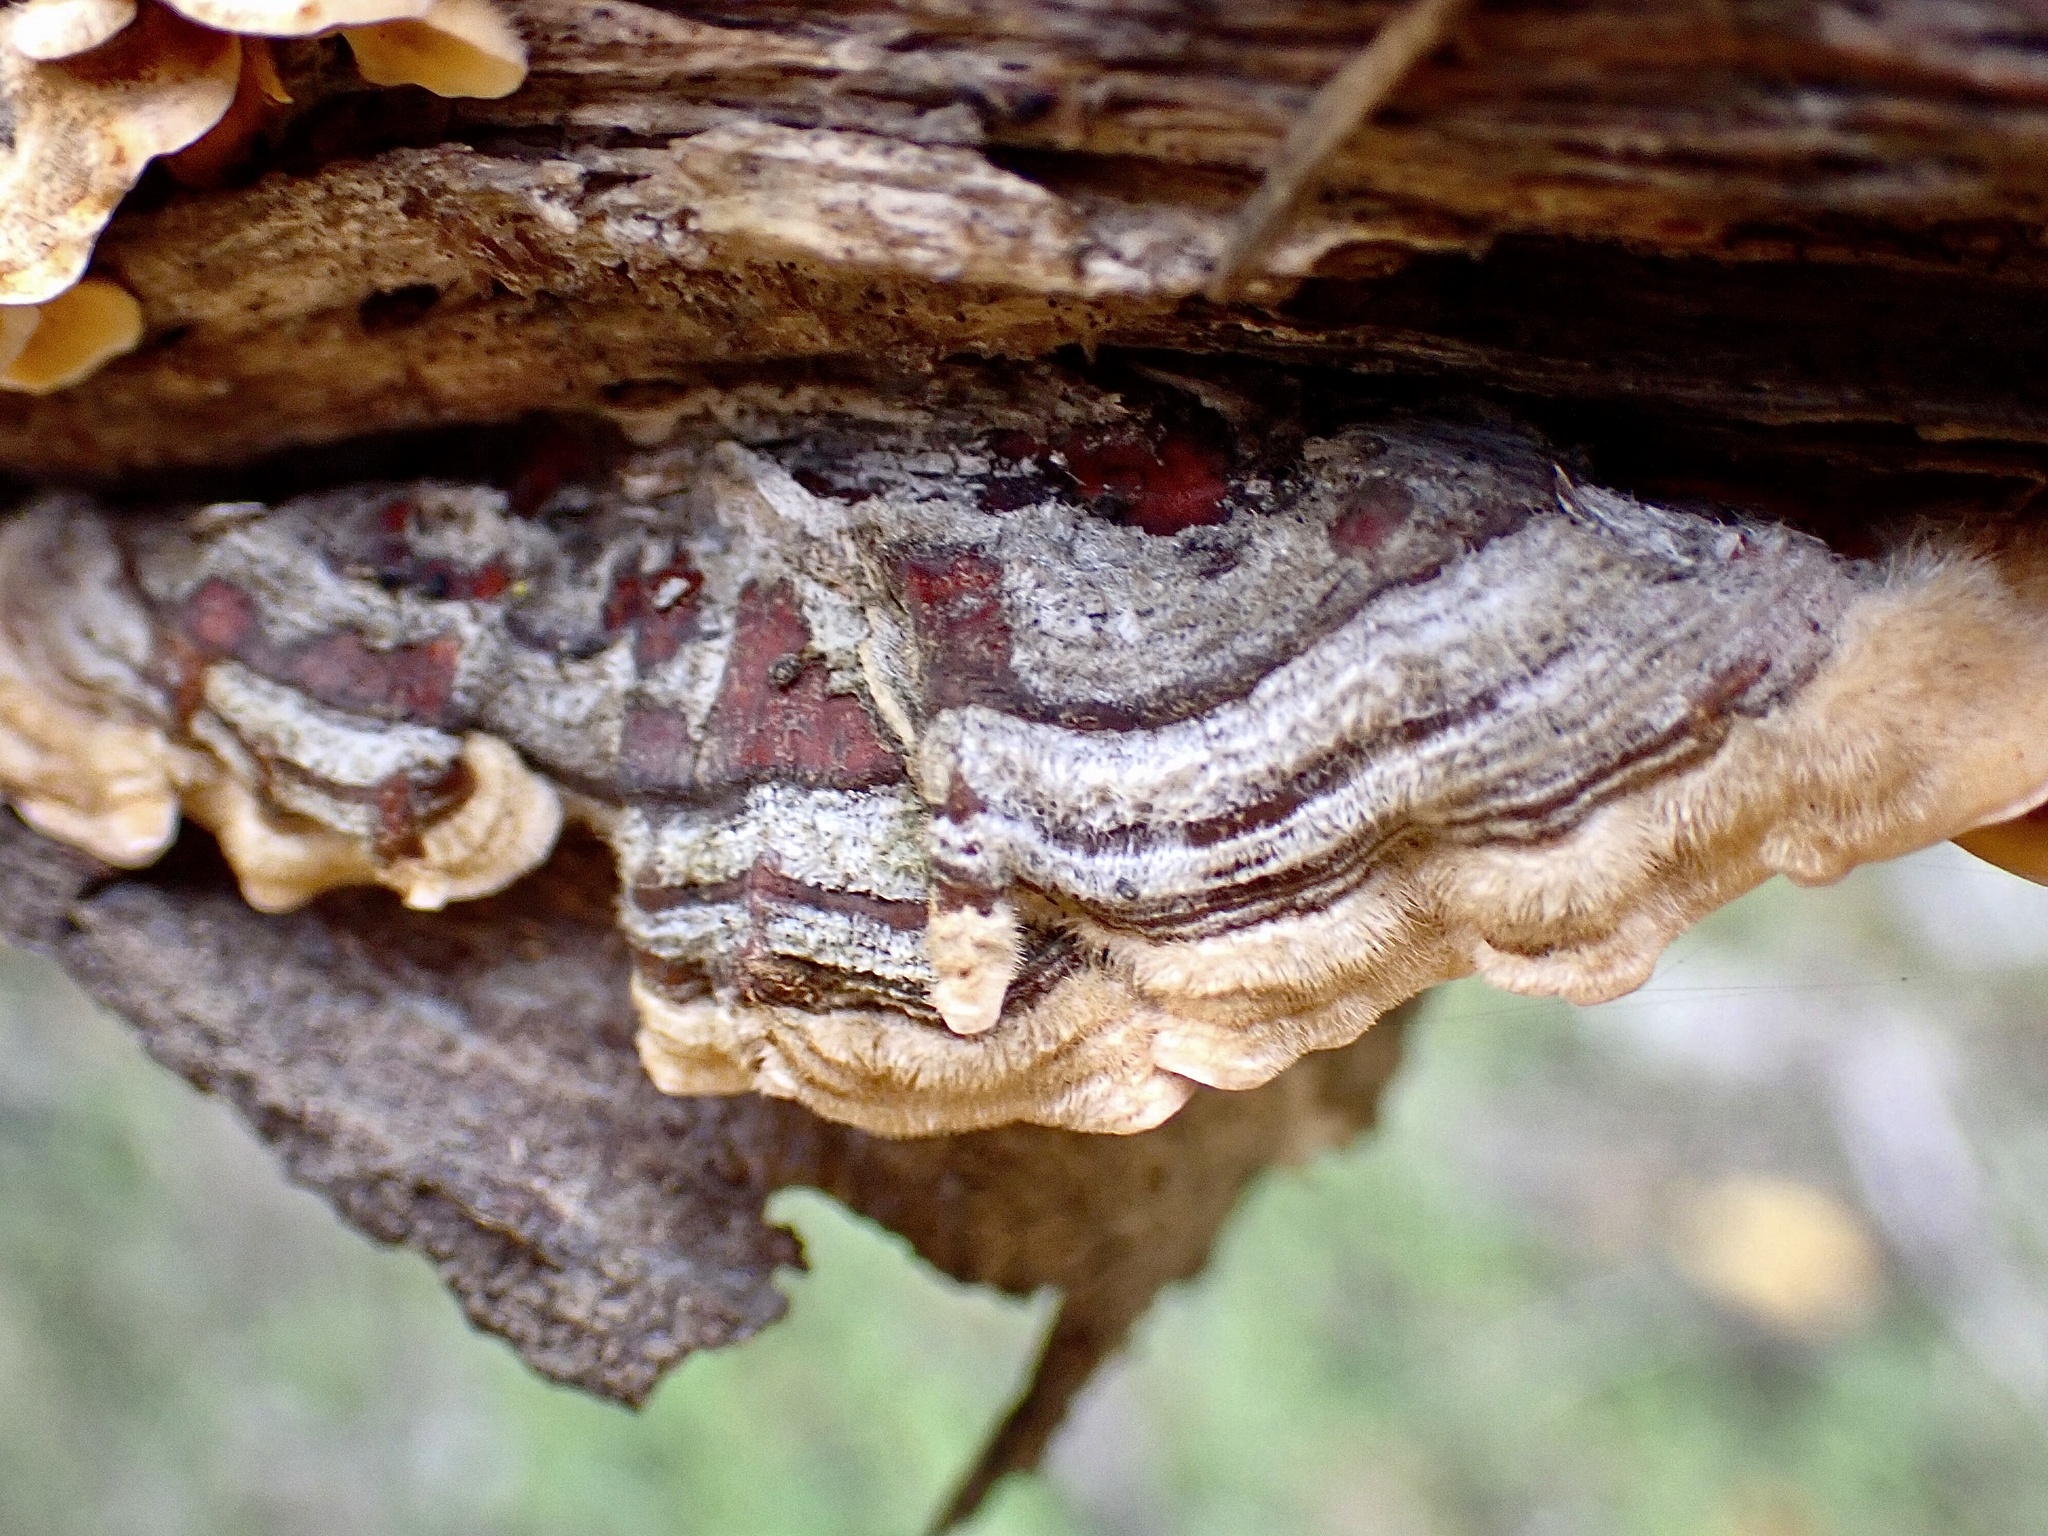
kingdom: Fungi
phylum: Basidiomycota
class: Agaricomycetes
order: Russulales
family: Stereaceae
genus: Stereum
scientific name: Stereum hirsutum
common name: Hairy curtain crust
